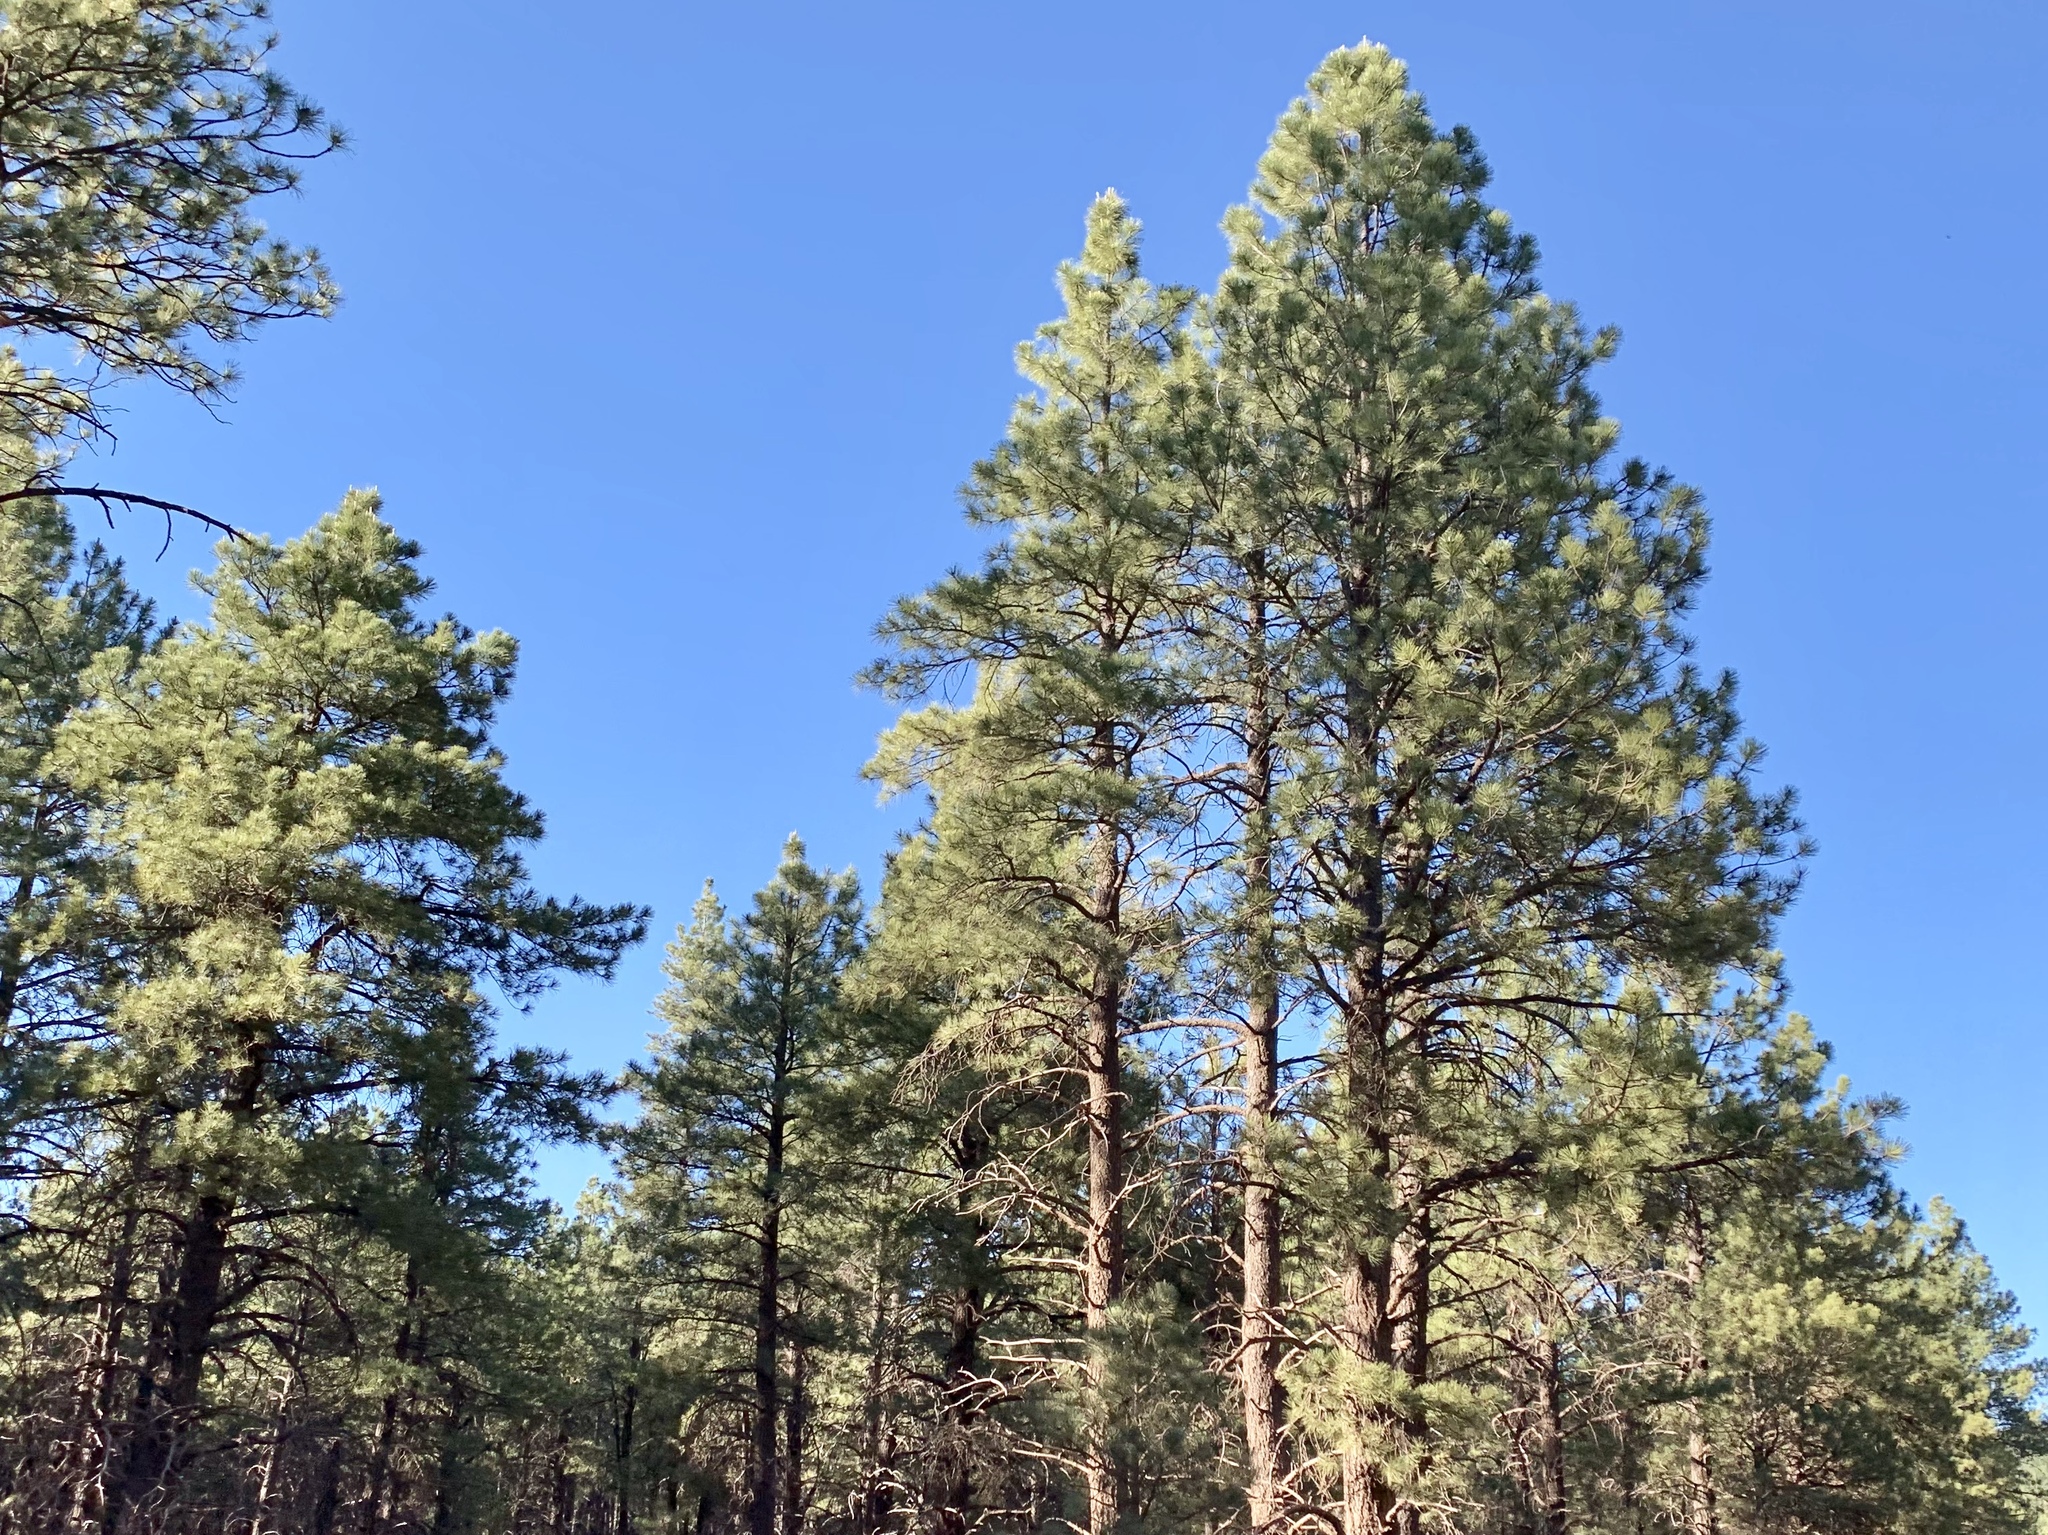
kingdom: Plantae
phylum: Tracheophyta
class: Pinopsida
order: Pinales
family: Pinaceae
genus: Pinus
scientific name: Pinus ponderosa
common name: Western yellow-pine
